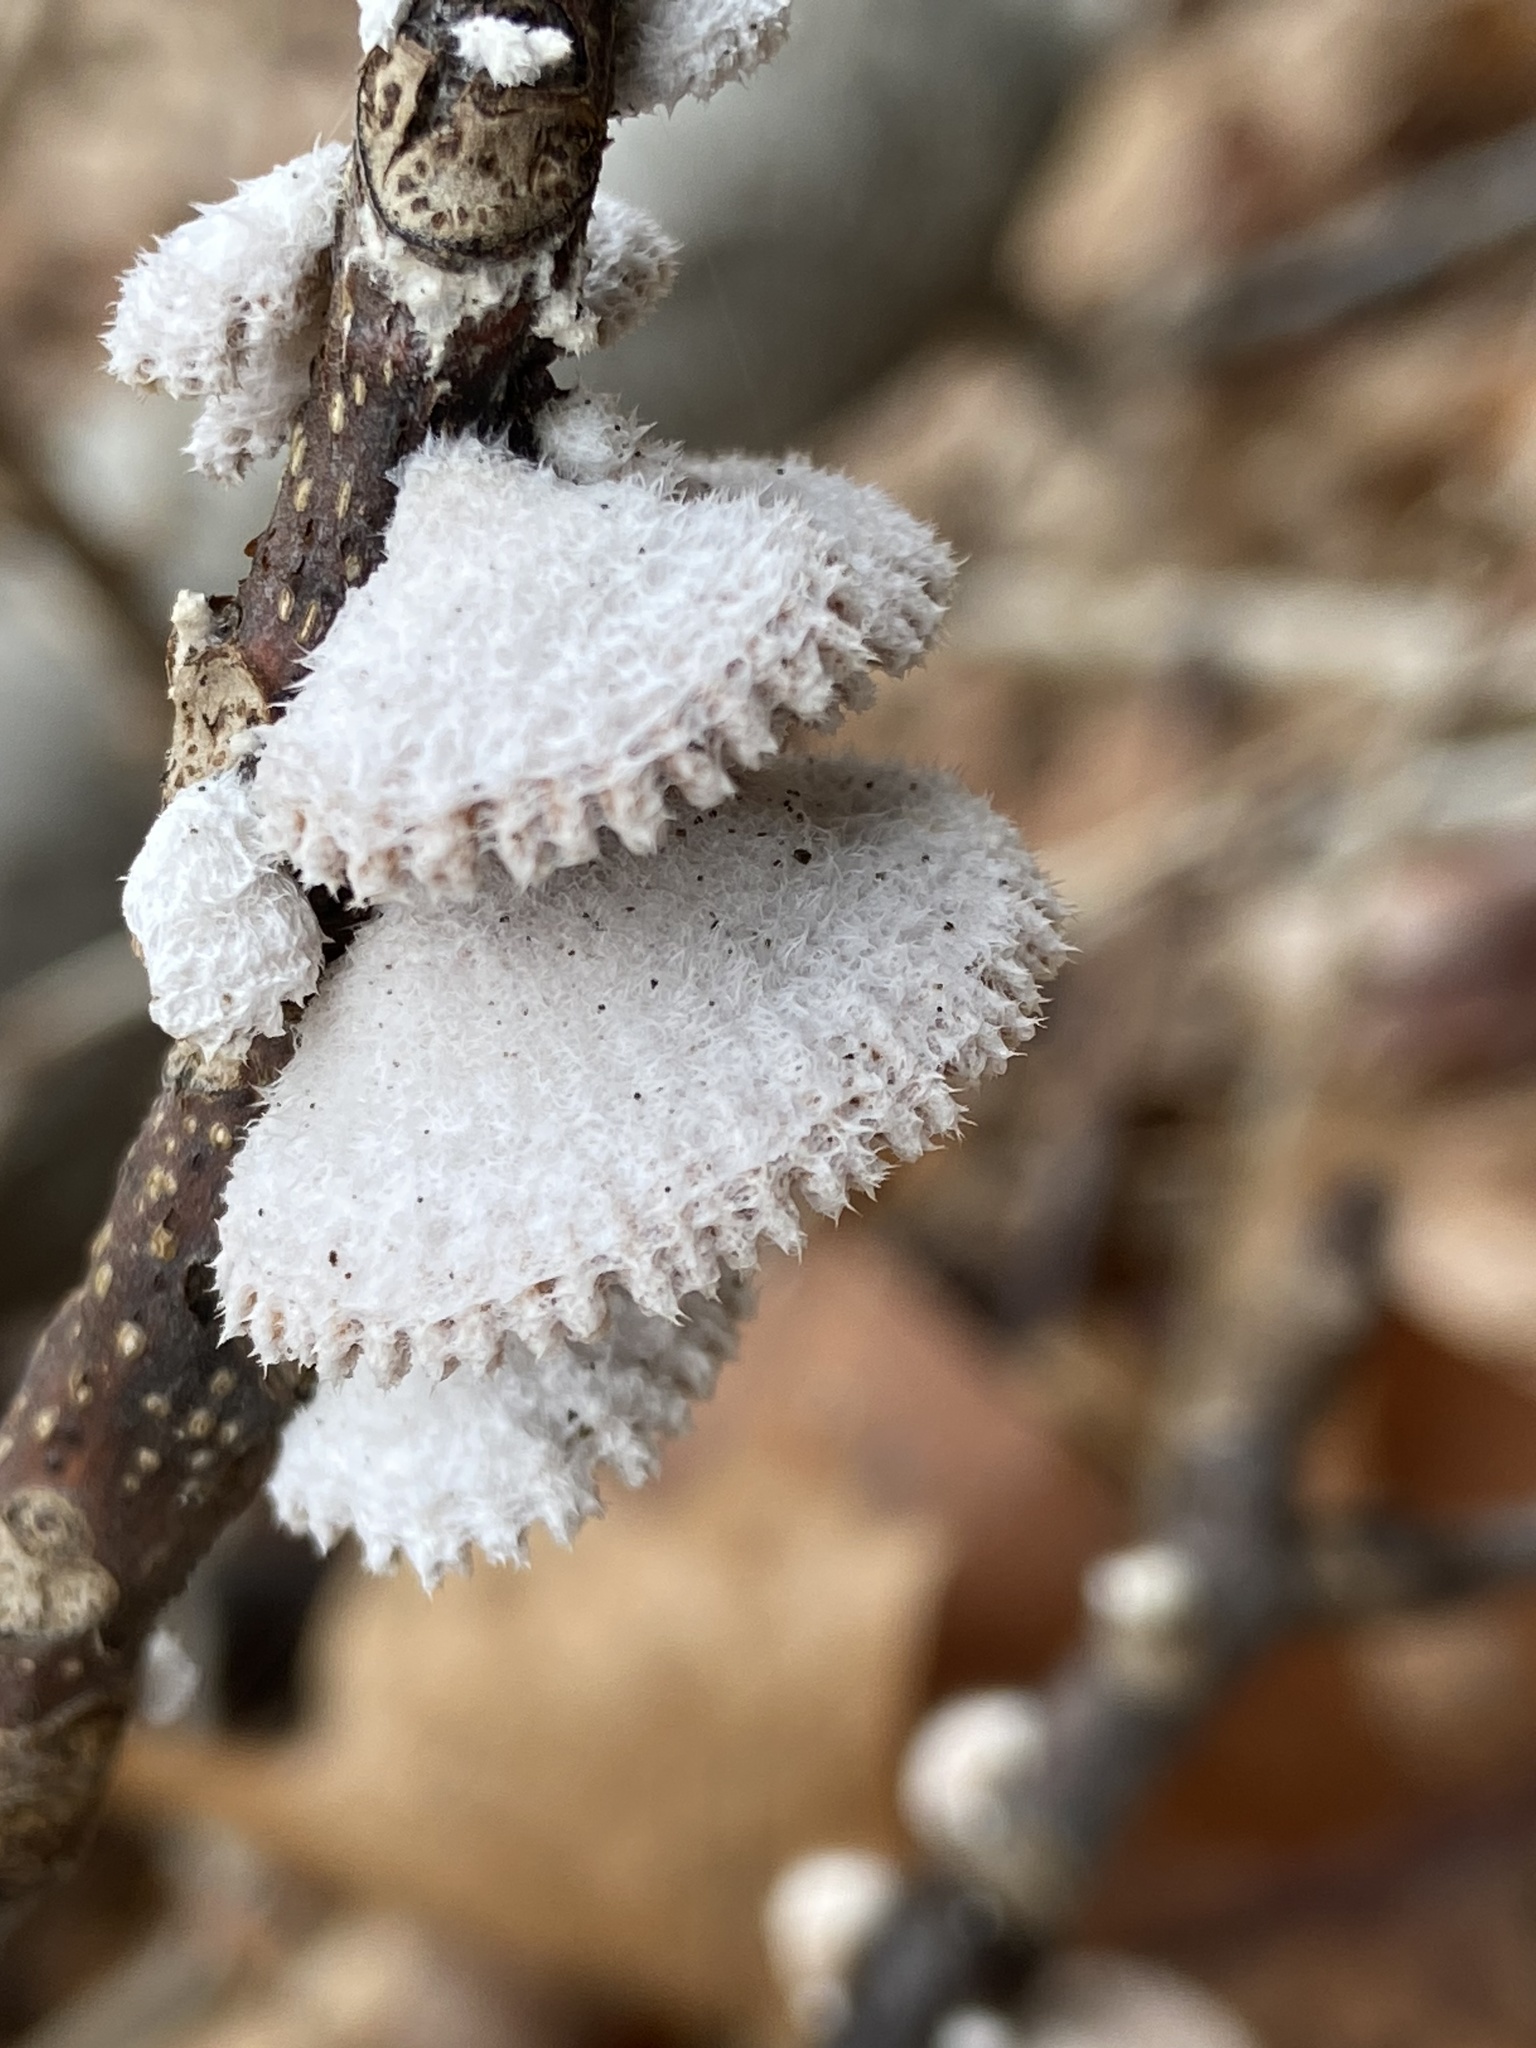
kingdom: Fungi
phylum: Basidiomycota
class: Agaricomycetes
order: Agaricales
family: Schizophyllaceae
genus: Schizophyllum
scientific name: Schizophyllum commune
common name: Common porecrust
